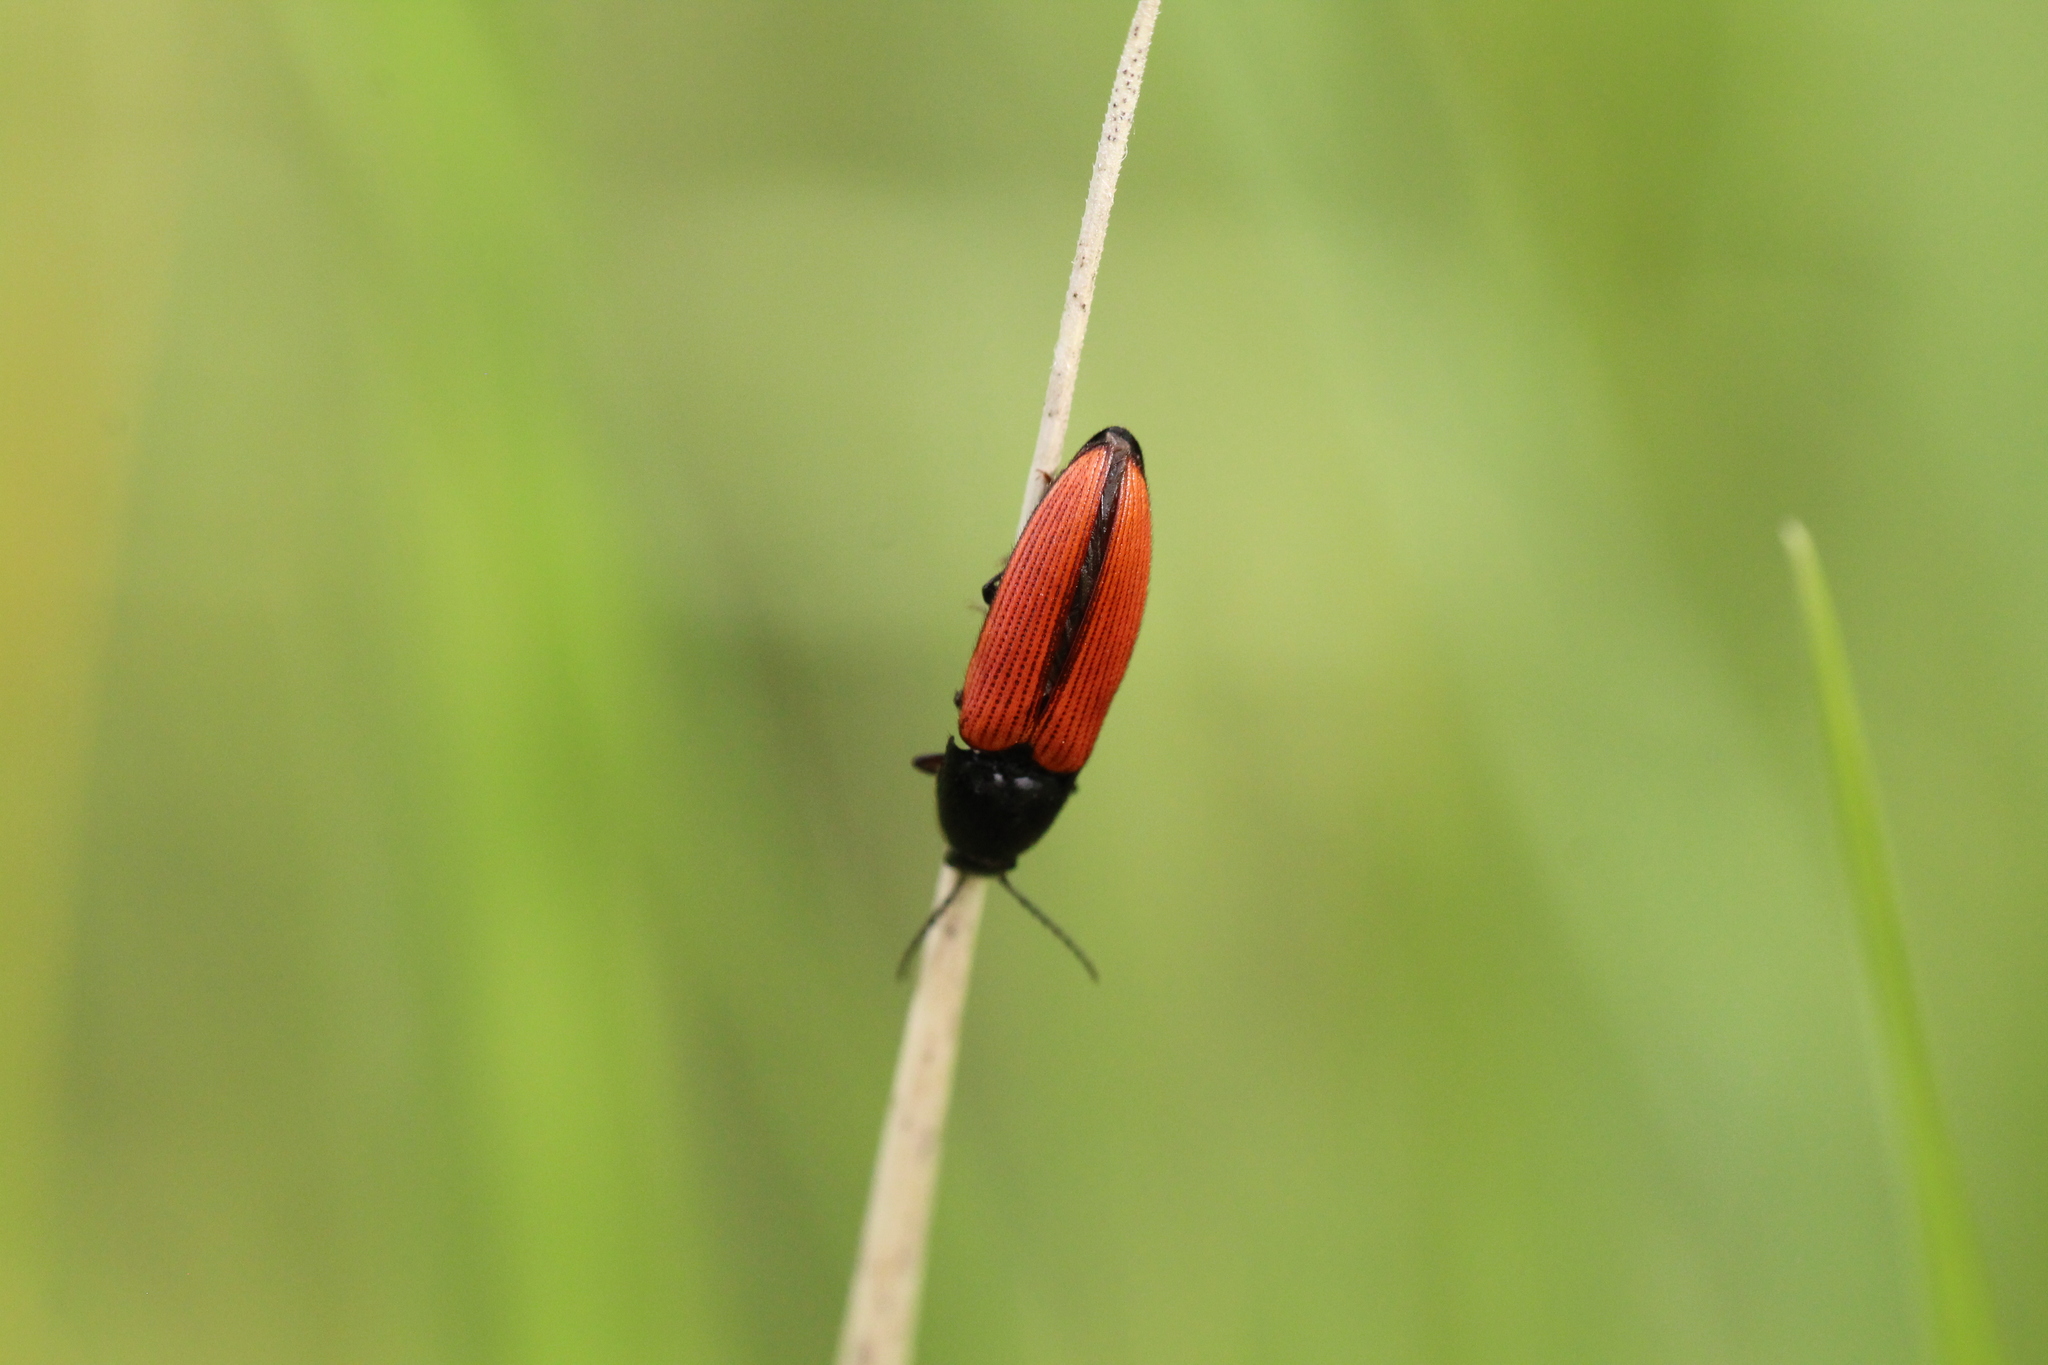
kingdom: Animalia
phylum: Arthropoda
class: Insecta
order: Coleoptera
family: Elateridae
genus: Ampedus
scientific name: Ampedus sanguinolentus
